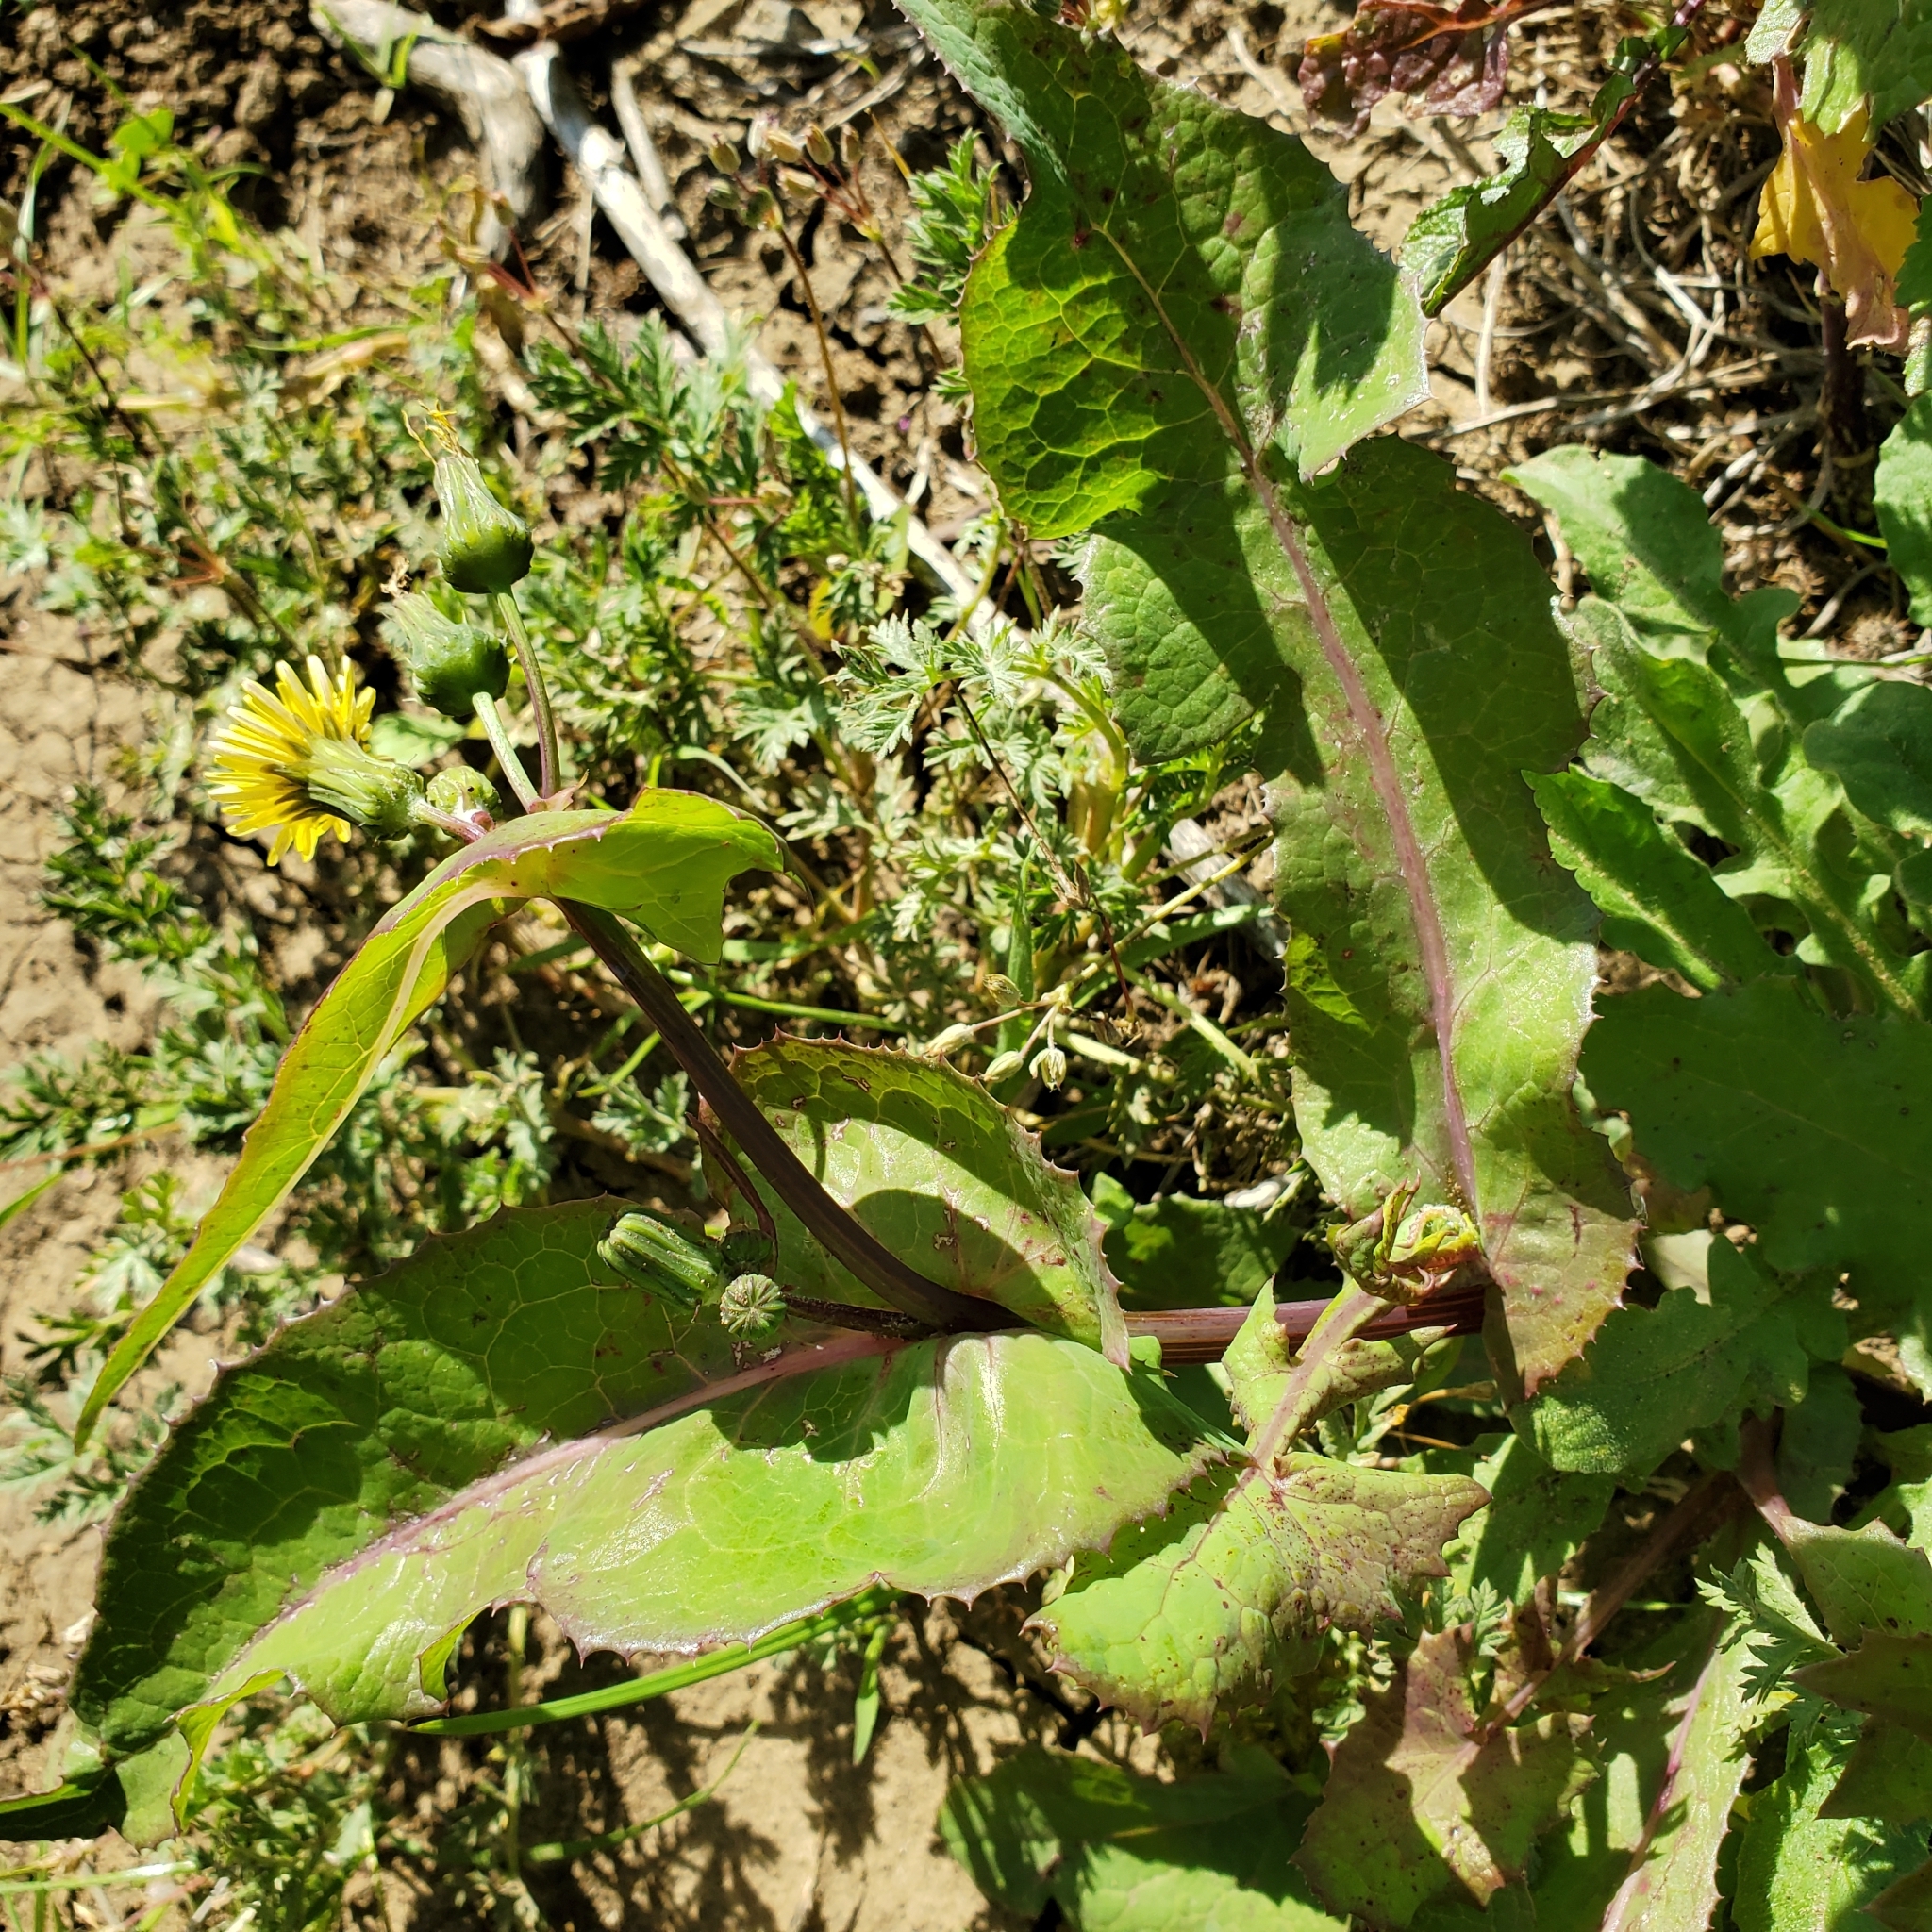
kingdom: Plantae
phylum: Tracheophyta
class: Magnoliopsida
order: Asterales
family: Asteraceae
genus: Sonchus
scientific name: Sonchus oleraceus
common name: Common sowthistle
